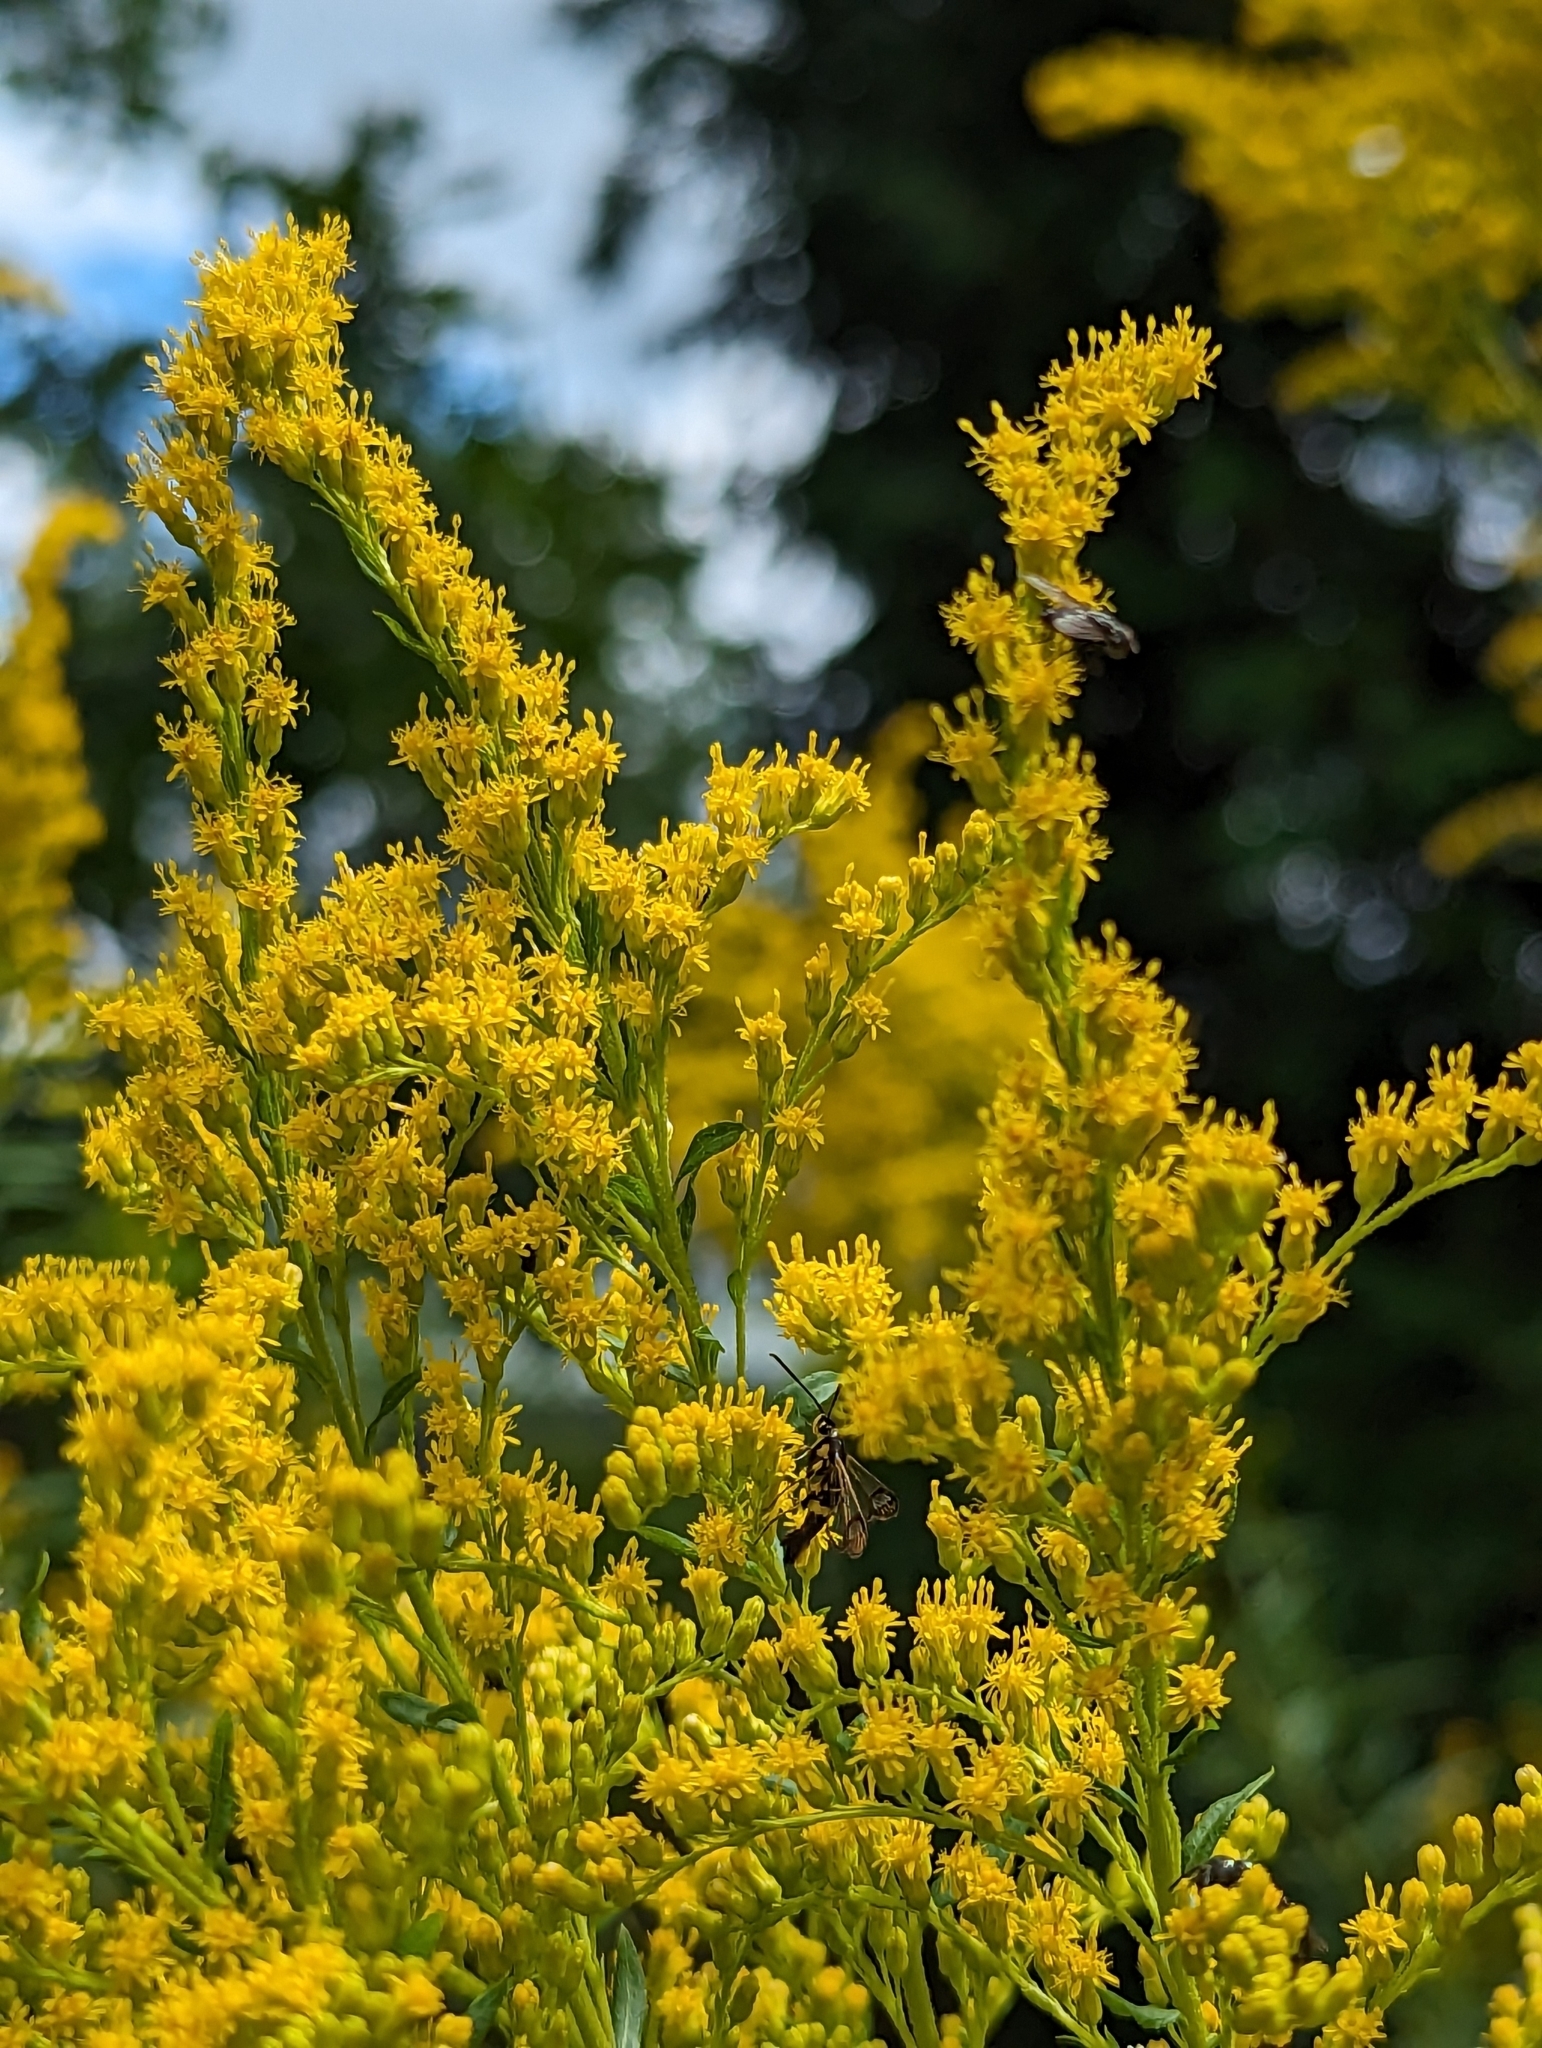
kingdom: Animalia
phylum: Arthropoda
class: Insecta
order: Lepidoptera
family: Sesiidae
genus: Synanthedon
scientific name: Synanthedon scitula
